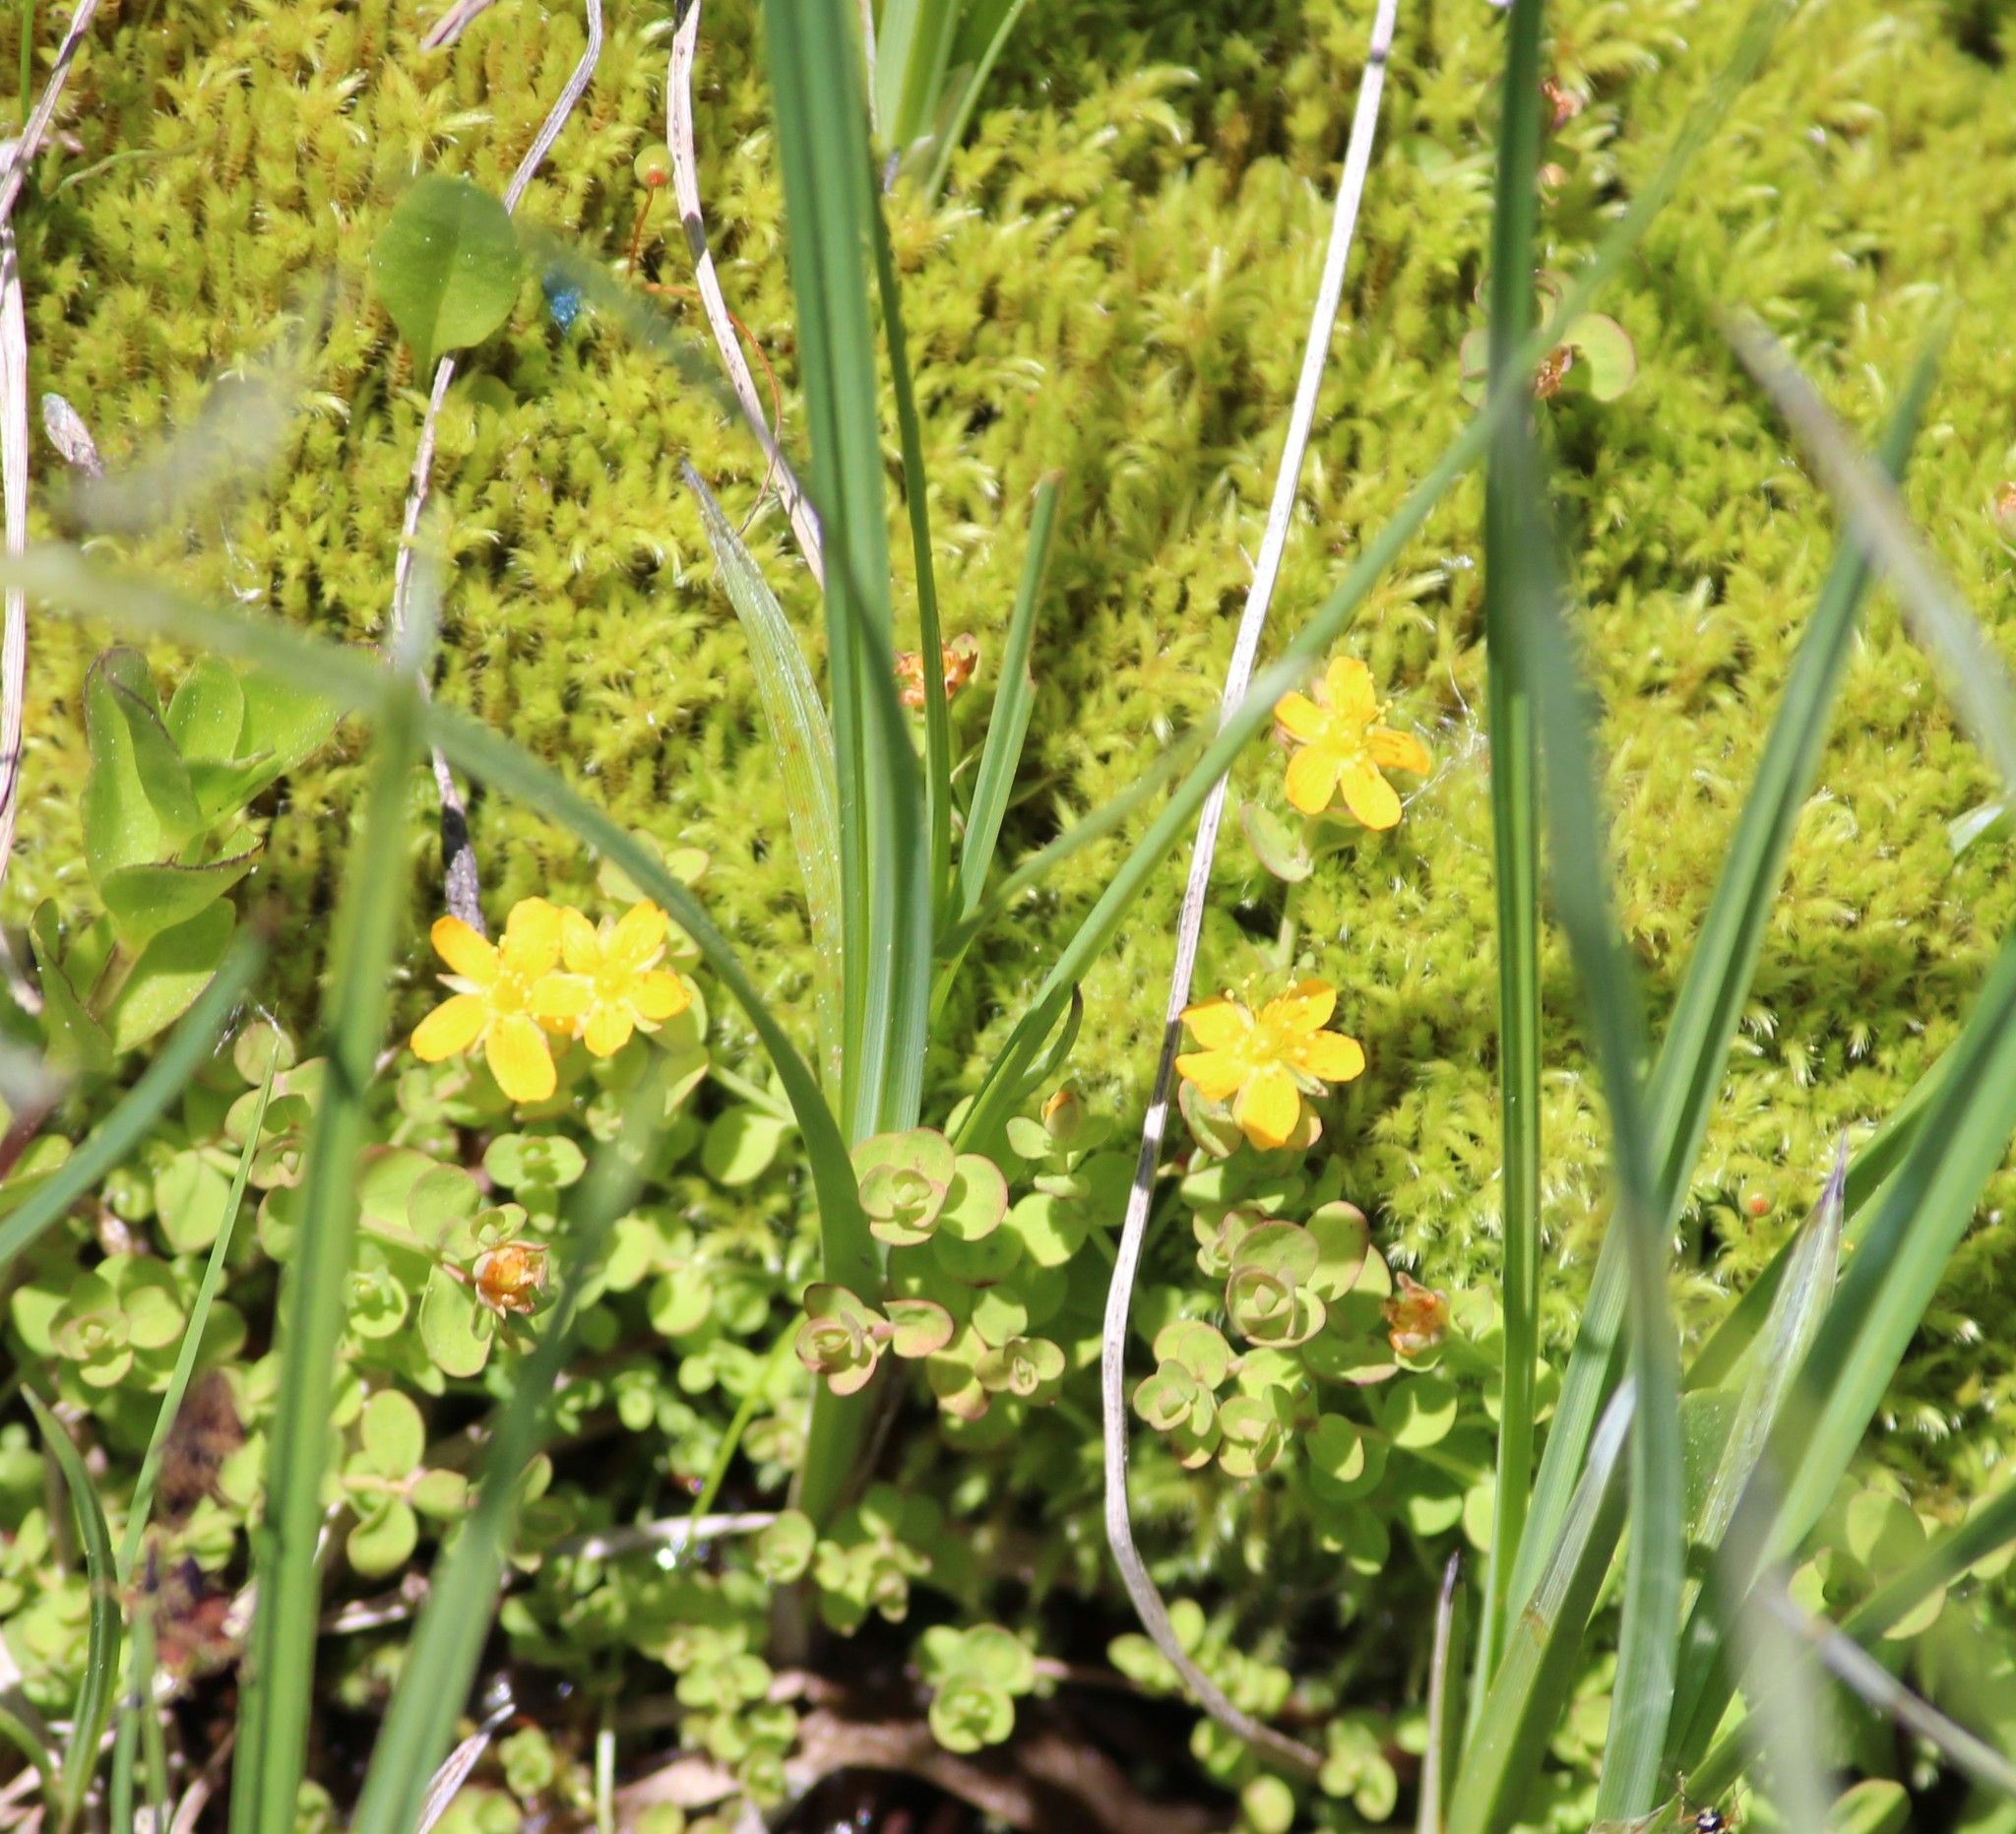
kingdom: Plantae
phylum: Tracheophyta
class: Magnoliopsida
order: Malpighiales
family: Hypericaceae
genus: Hypericum
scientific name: Hypericum anagalloides
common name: Bog st. john's-wort
